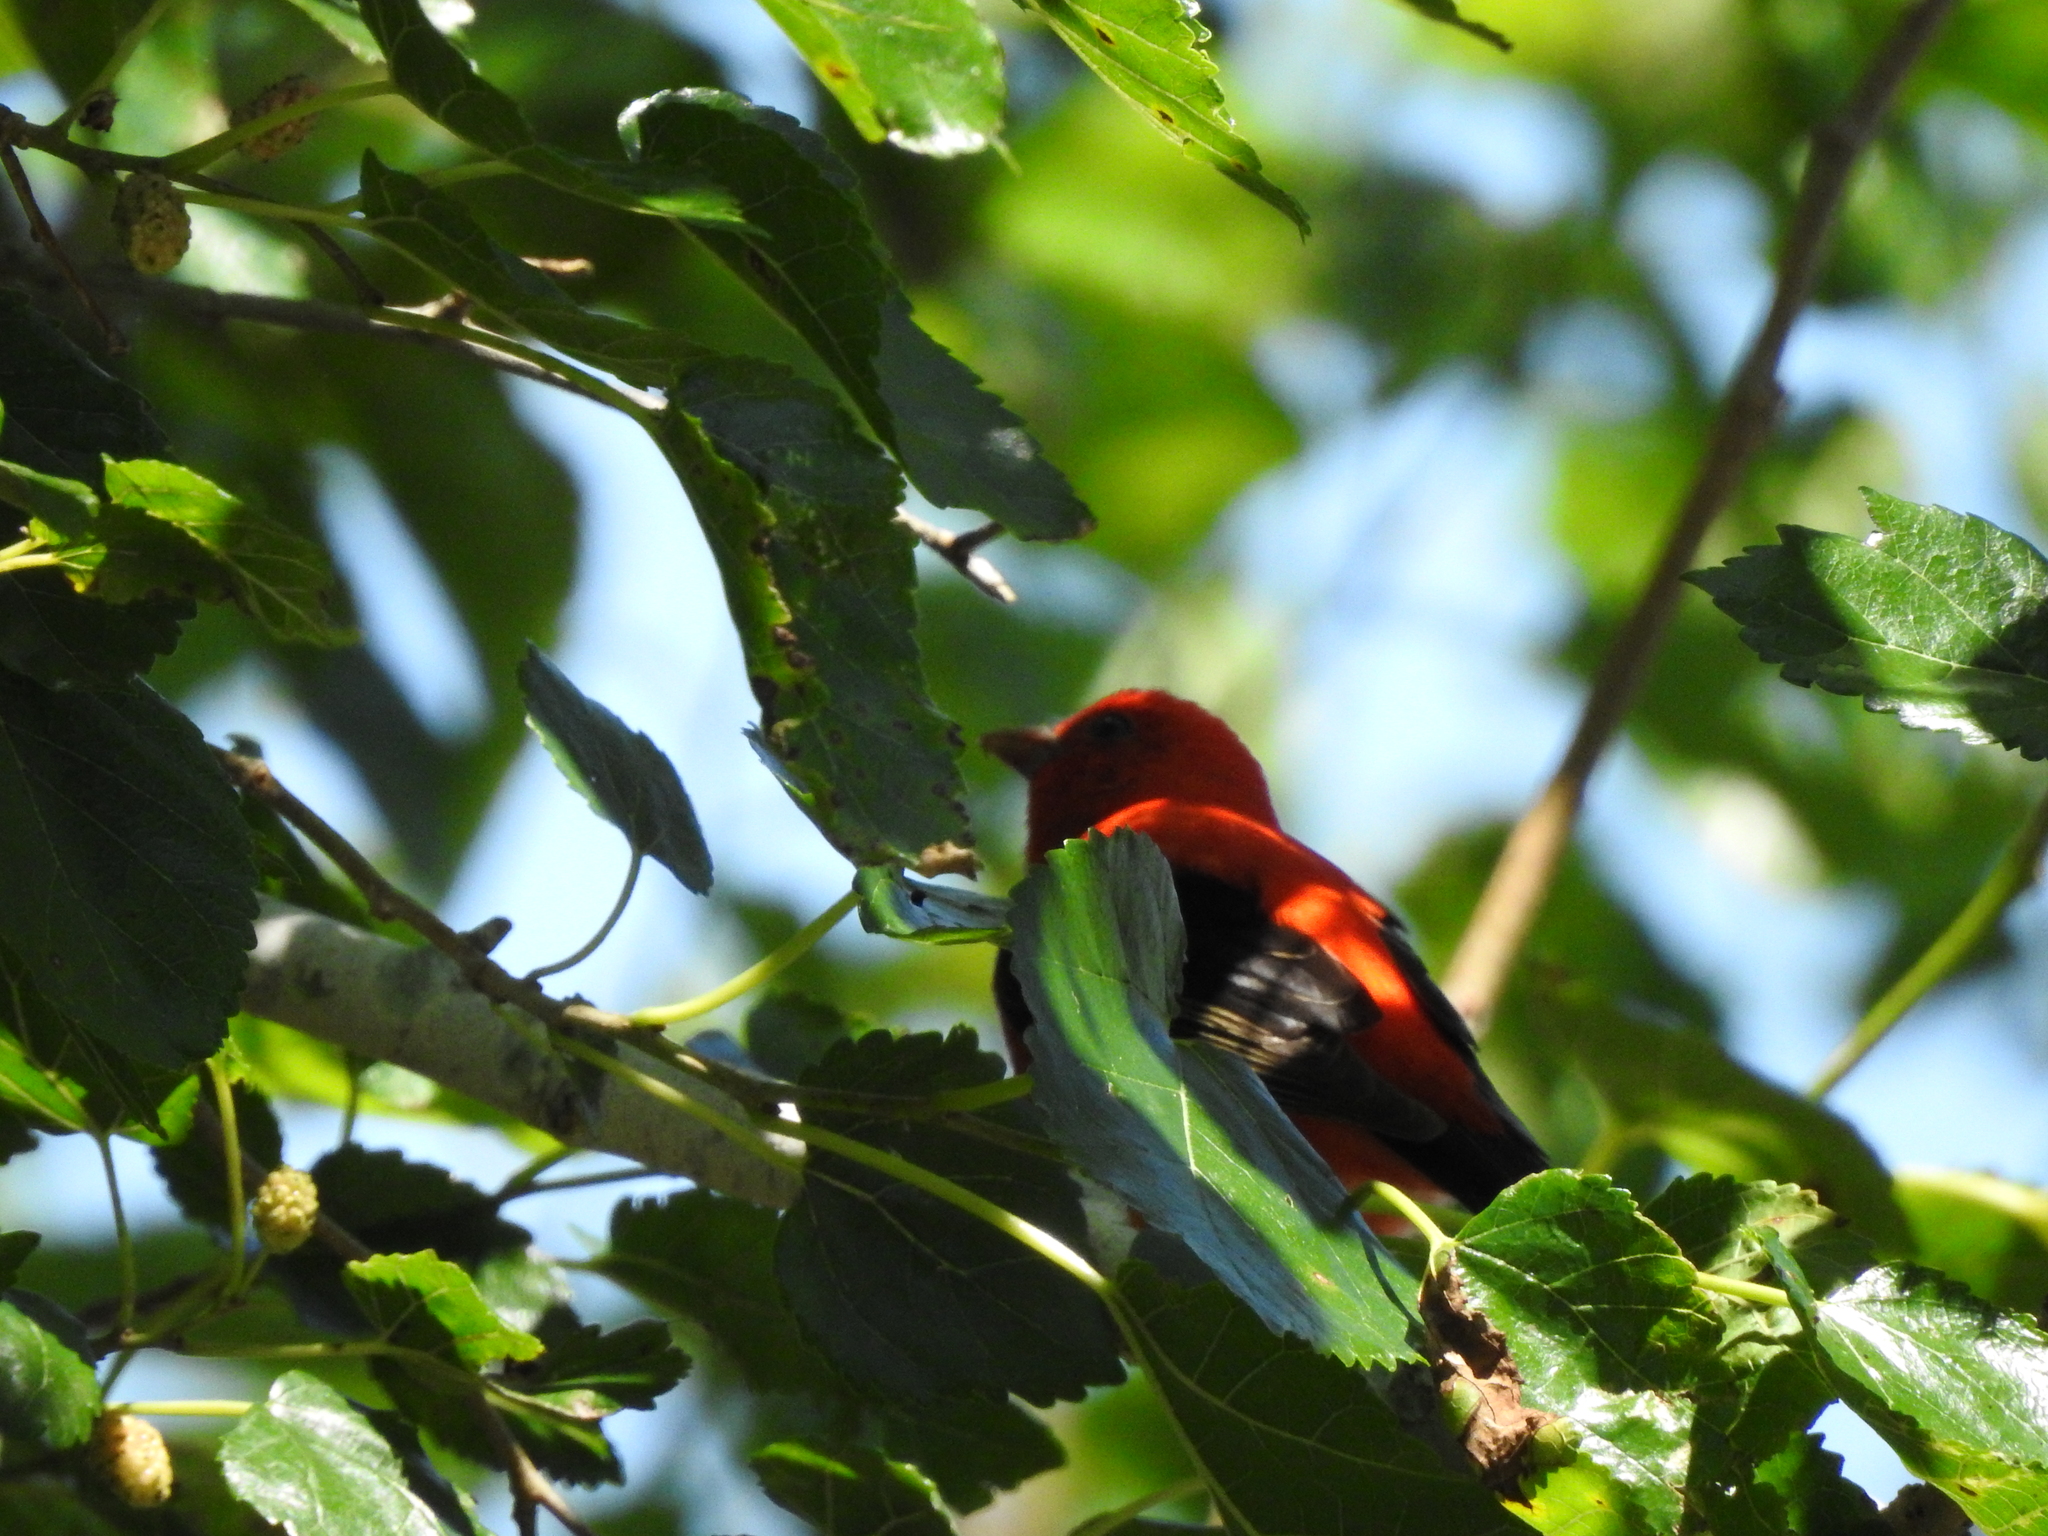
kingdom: Animalia
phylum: Chordata
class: Aves
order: Passeriformes
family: Cardinalidae
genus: Piranga
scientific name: Piranga olivacea
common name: Scarlet tanager
